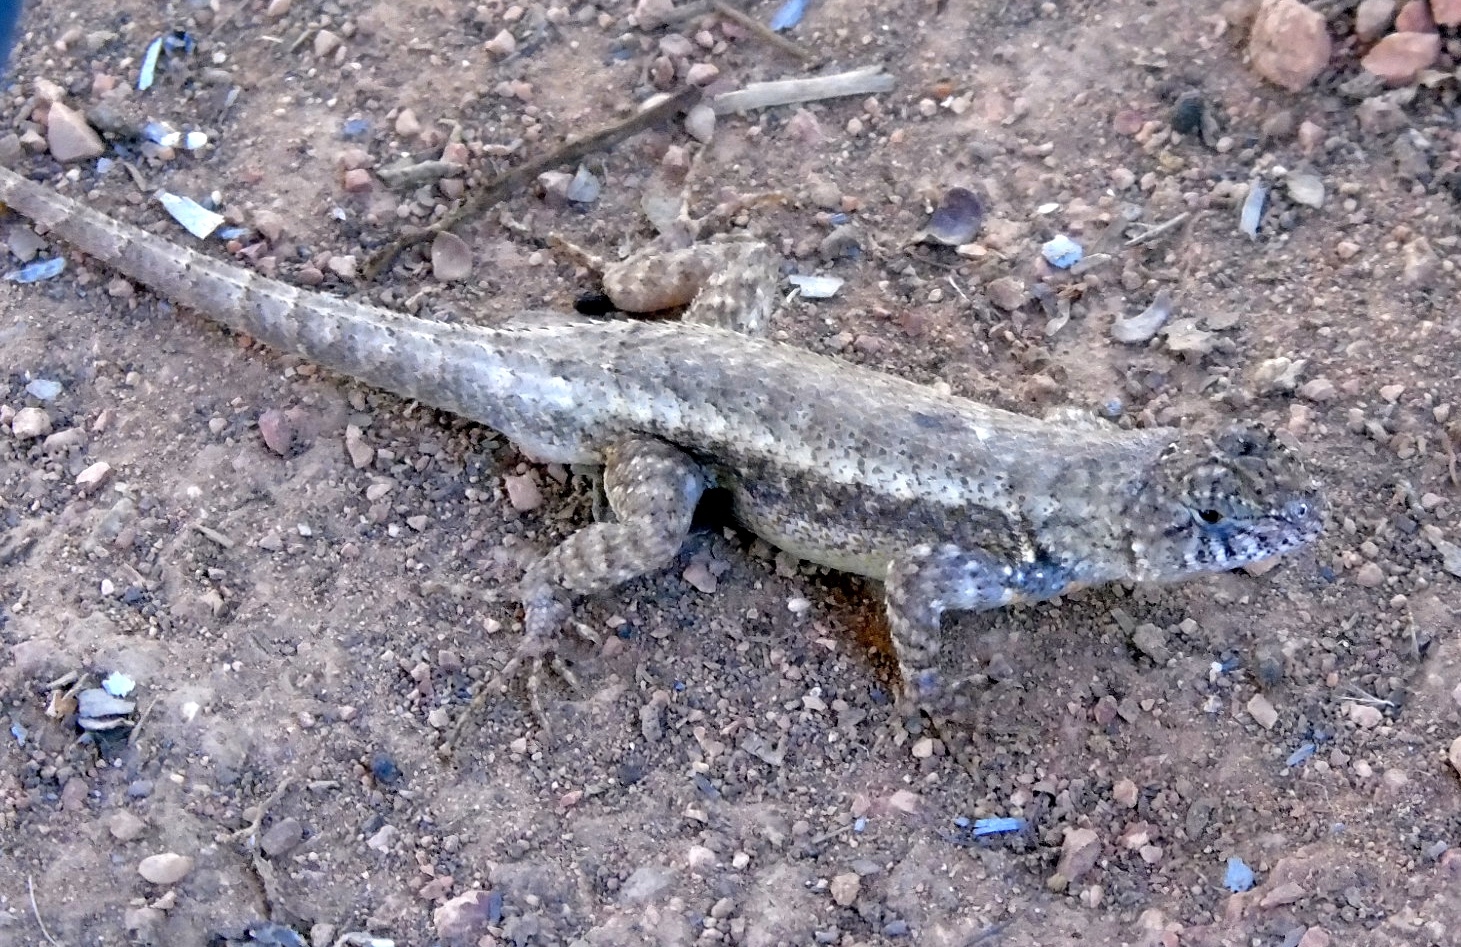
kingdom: Animalia
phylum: Chordata
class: Squamata
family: Phrynosomatidae
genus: Sceloporus
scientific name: Sceloporus nelsoni
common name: Nelson's spiny lizard
